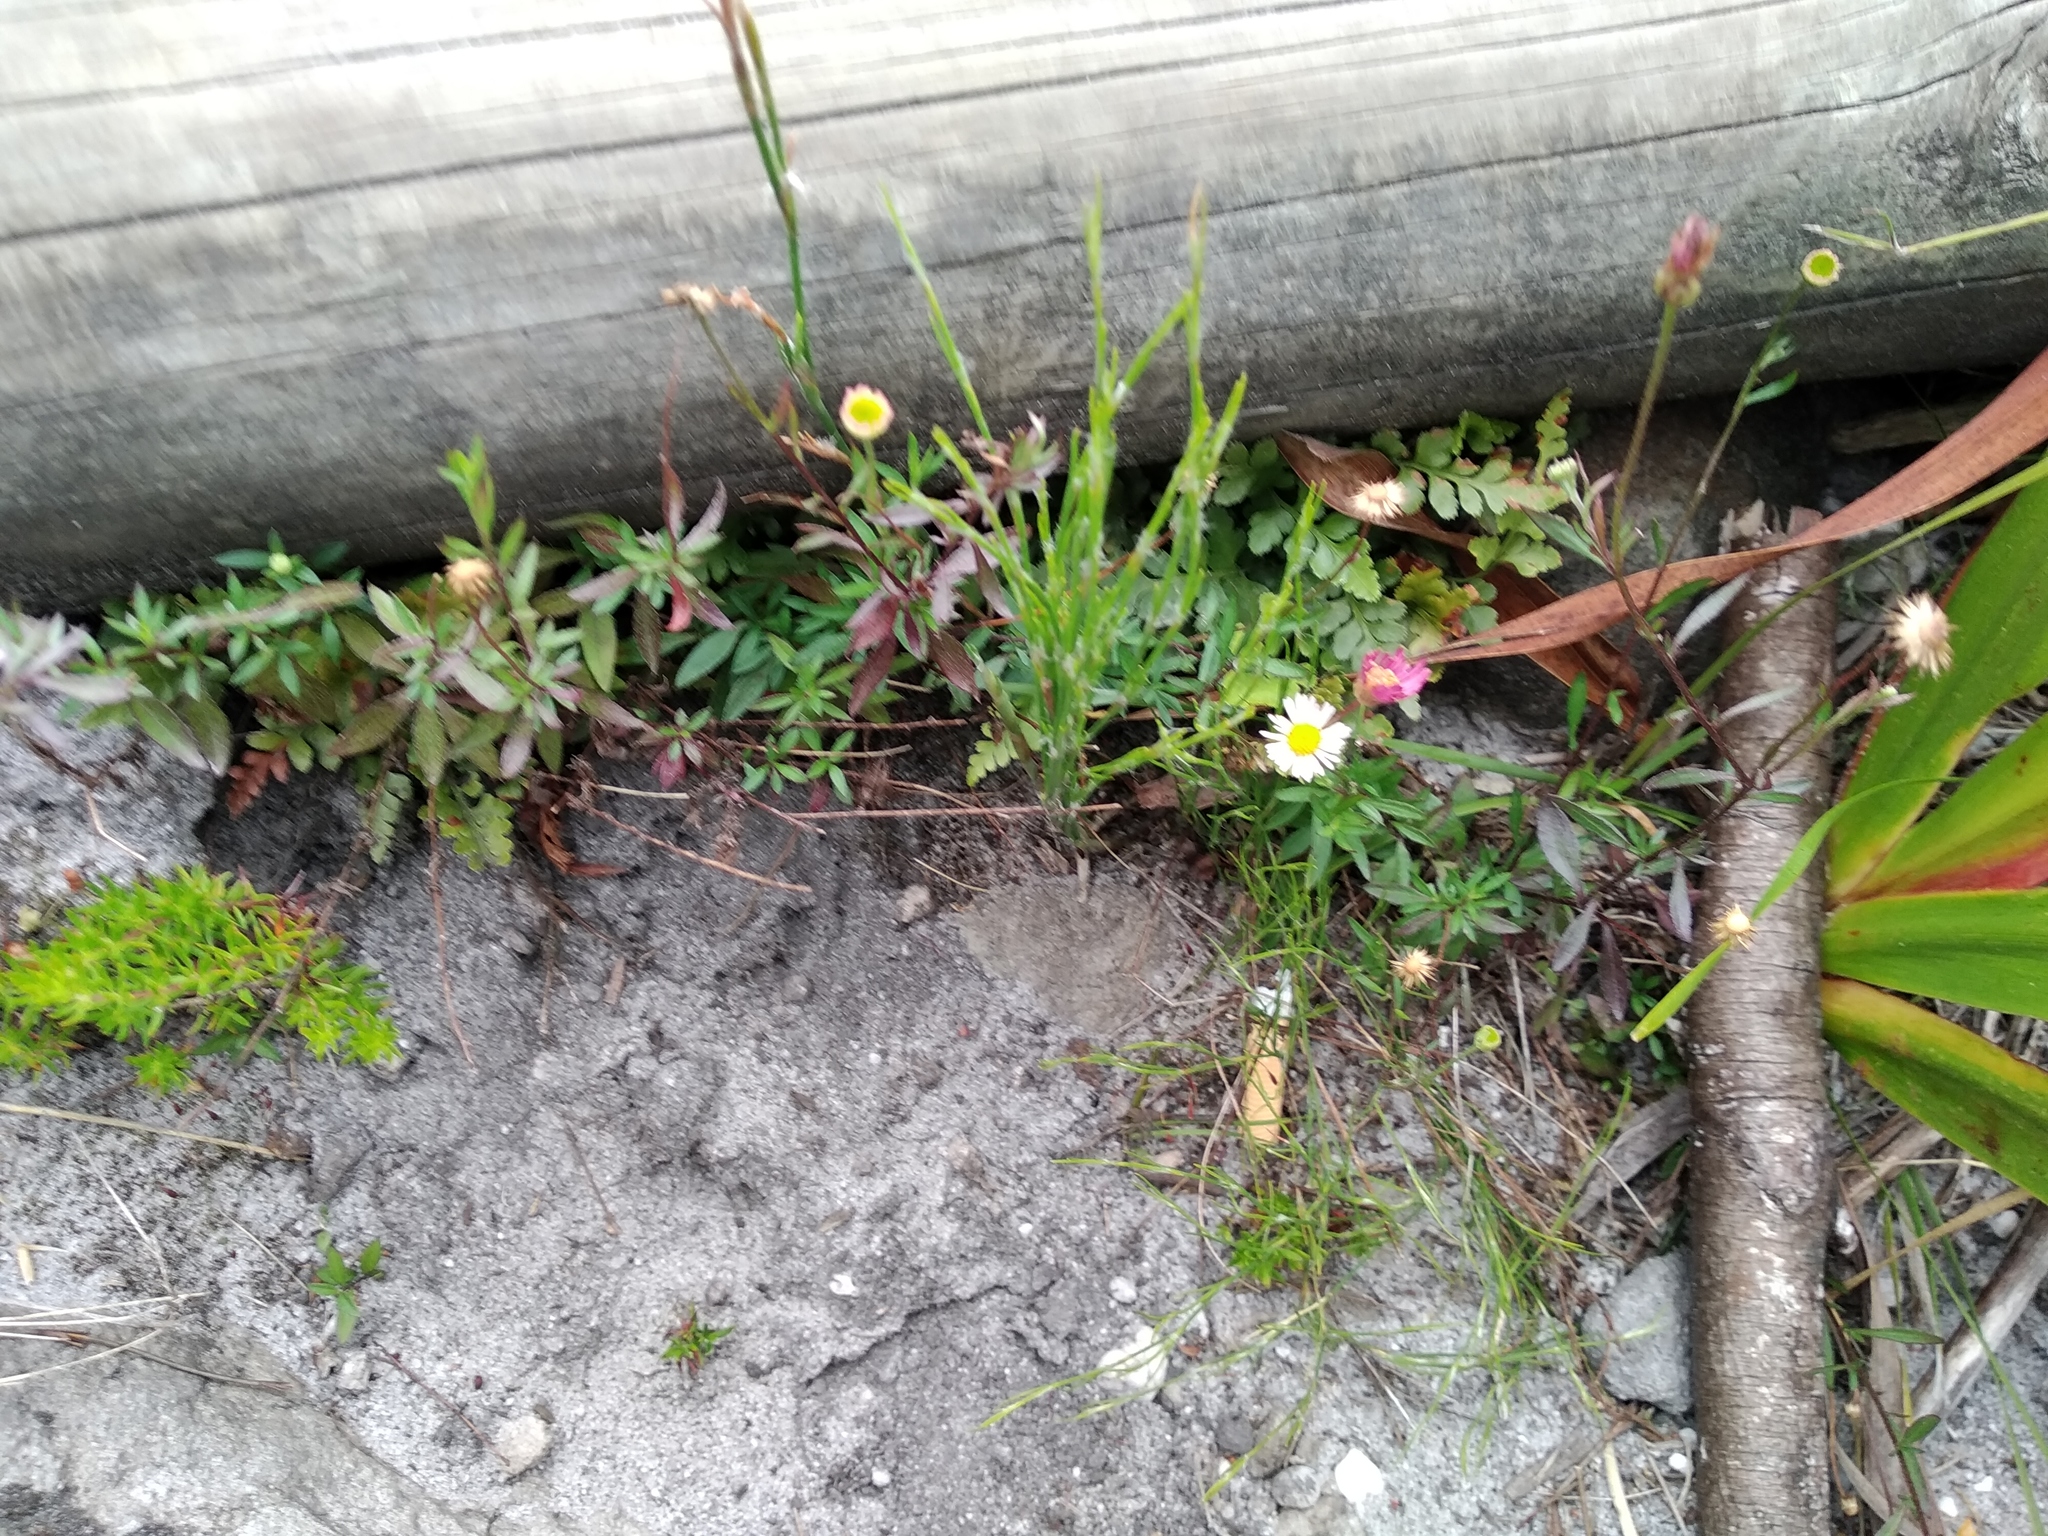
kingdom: Plantae
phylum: Tracheophyta
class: Magnoliopsida
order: Asterales
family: Asteraceae
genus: Erigeron
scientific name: Erigeron karvinskianus
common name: Mexican fleabane
